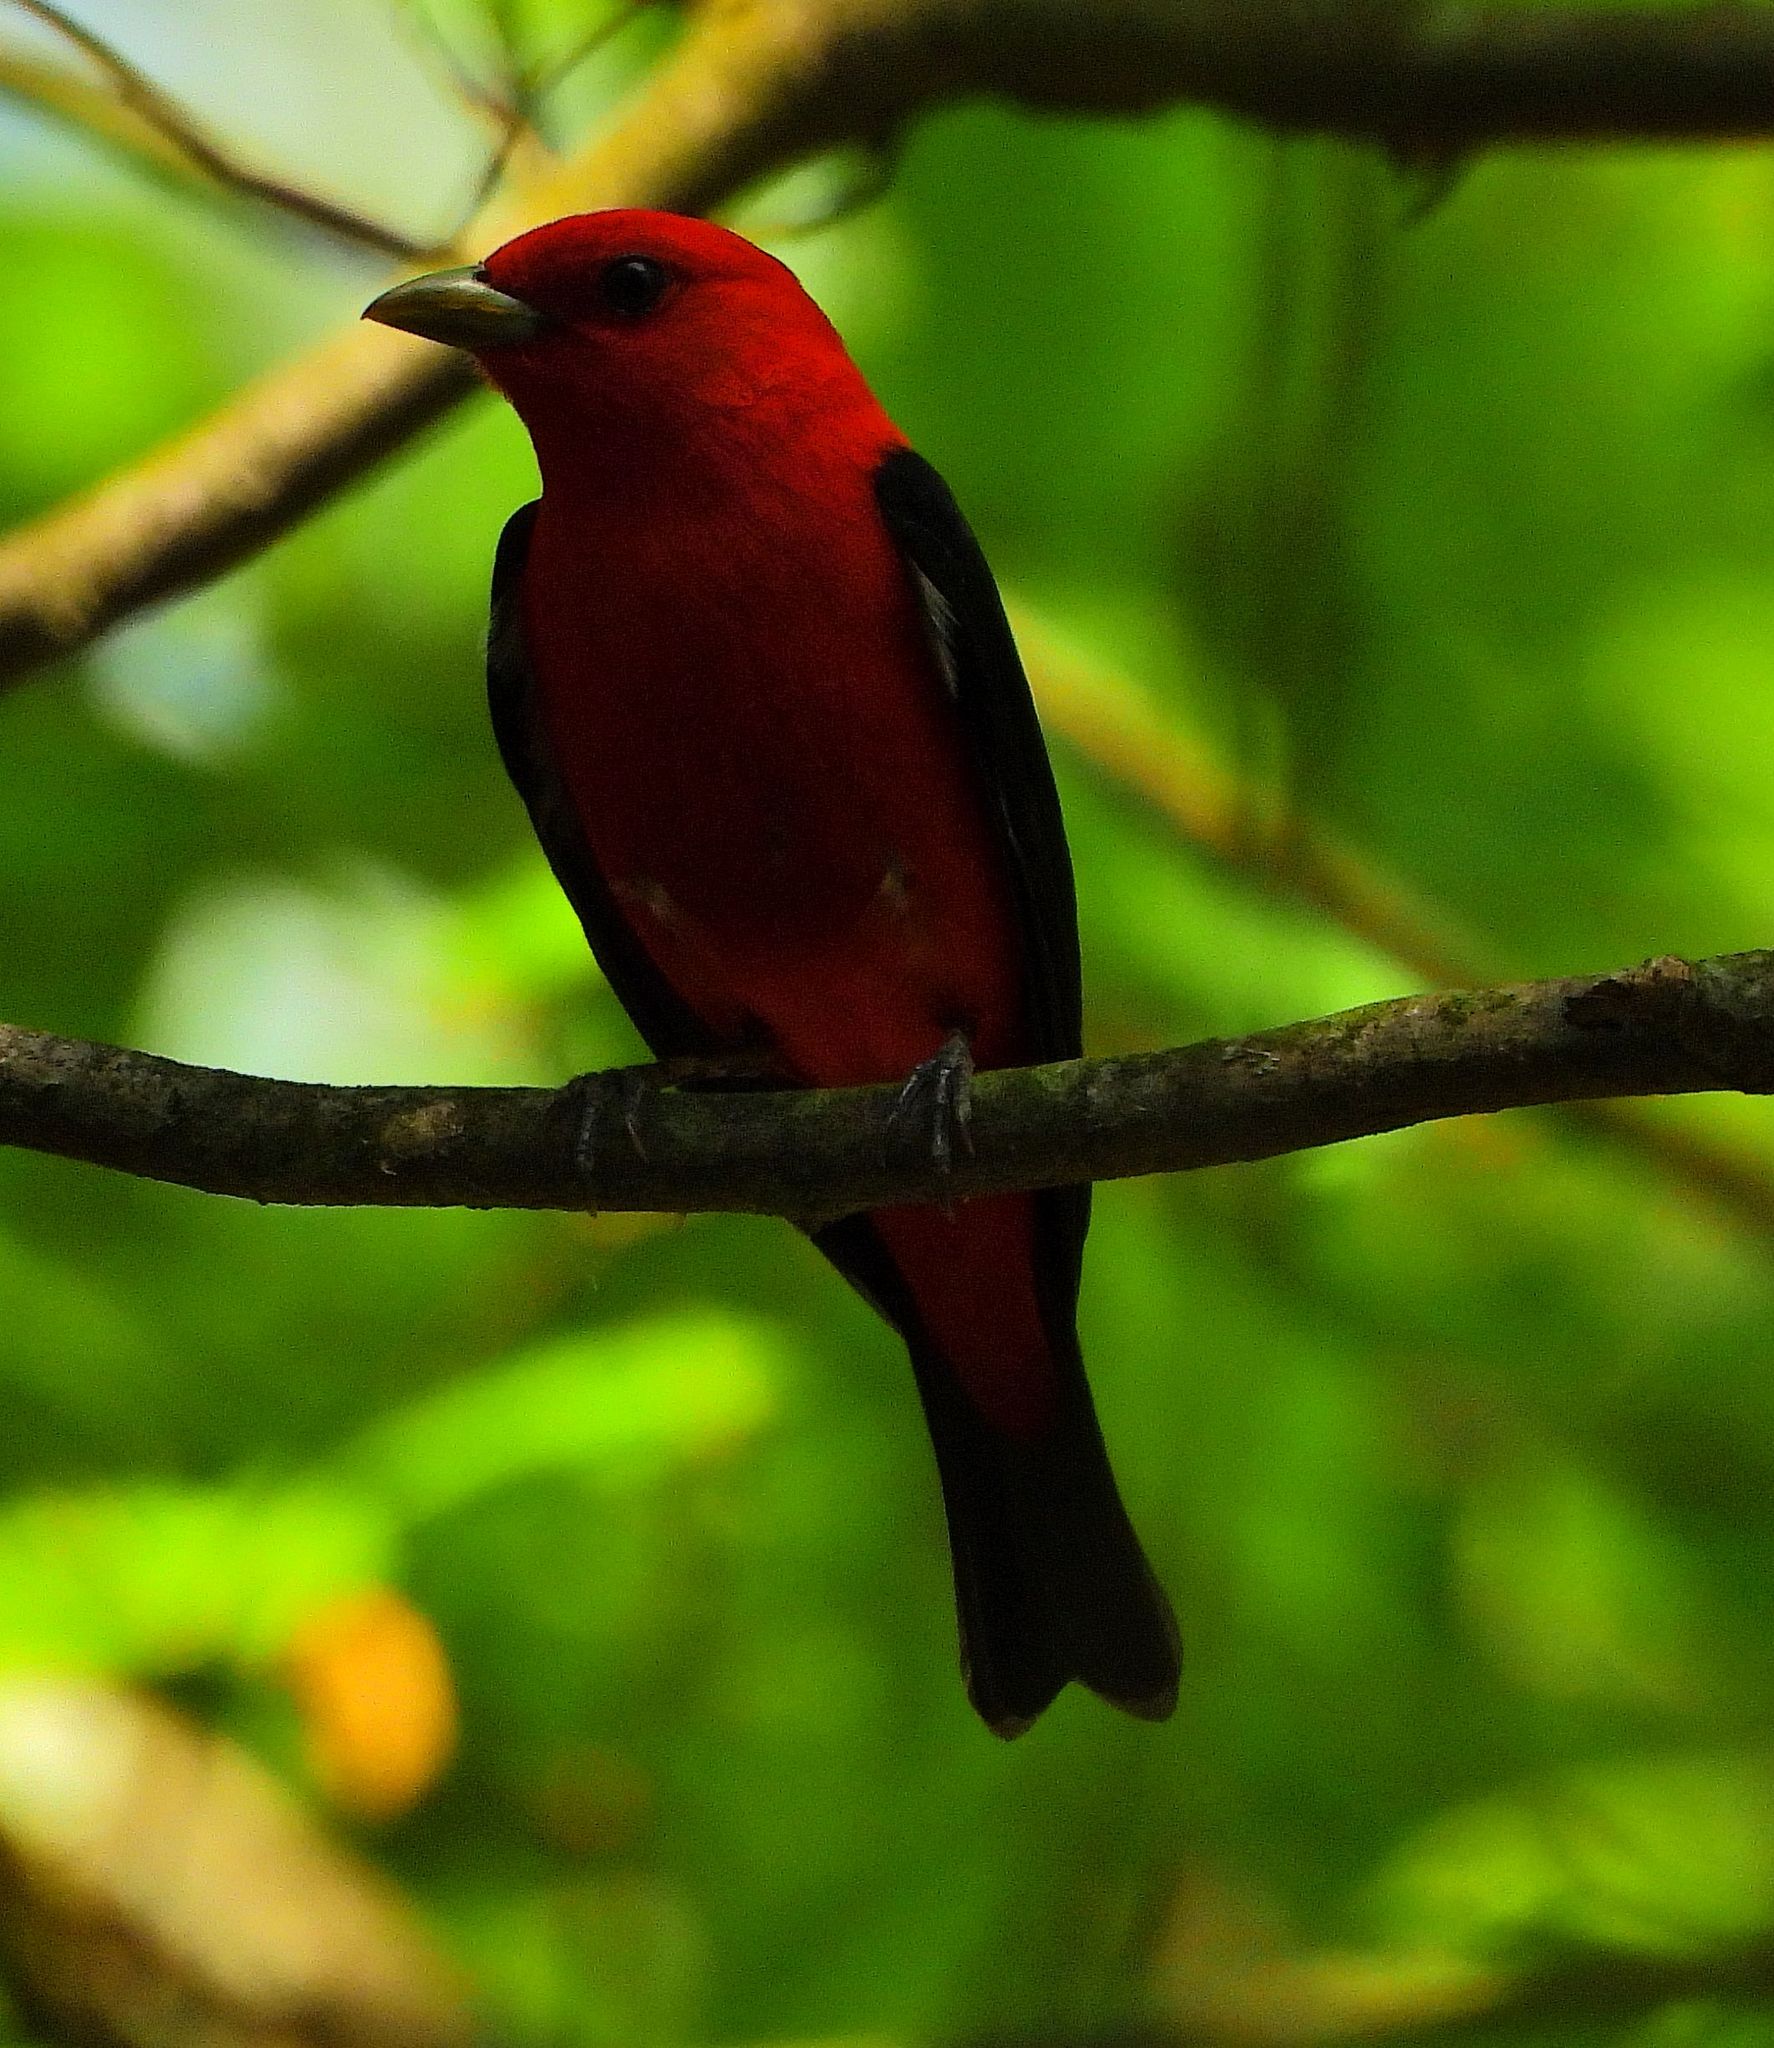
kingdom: Animalia
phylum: Chordata
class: Aves
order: Passeriformes
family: Cardinalidae
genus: Piranga
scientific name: Piranga olivacea
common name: Scarlet tanager
